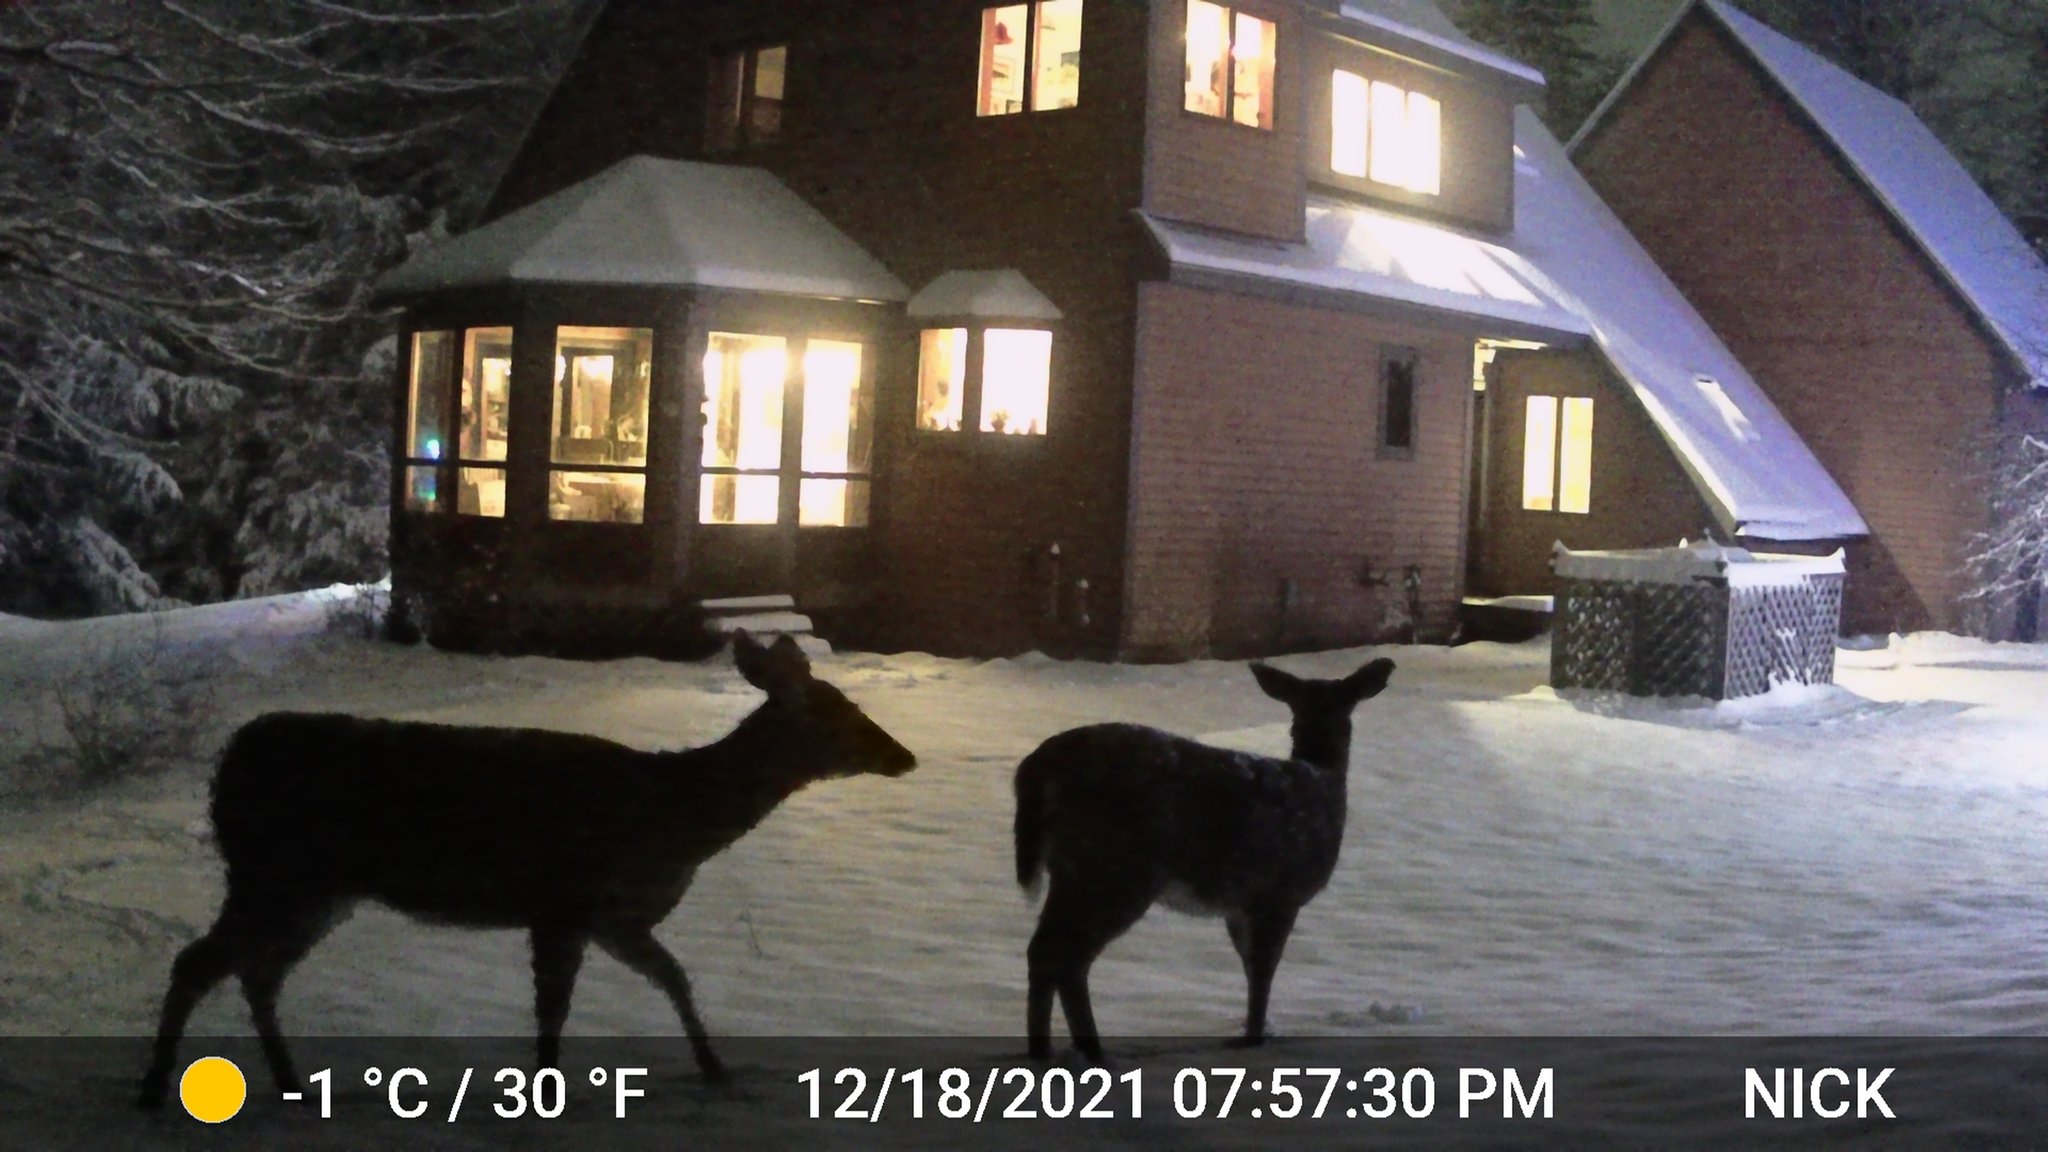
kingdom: Animalia
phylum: Chordata
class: Mammalia
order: Artiodactyla
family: Cervidae
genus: Odocoileus
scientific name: Odocoileus virginianus
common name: White-tailed deer
